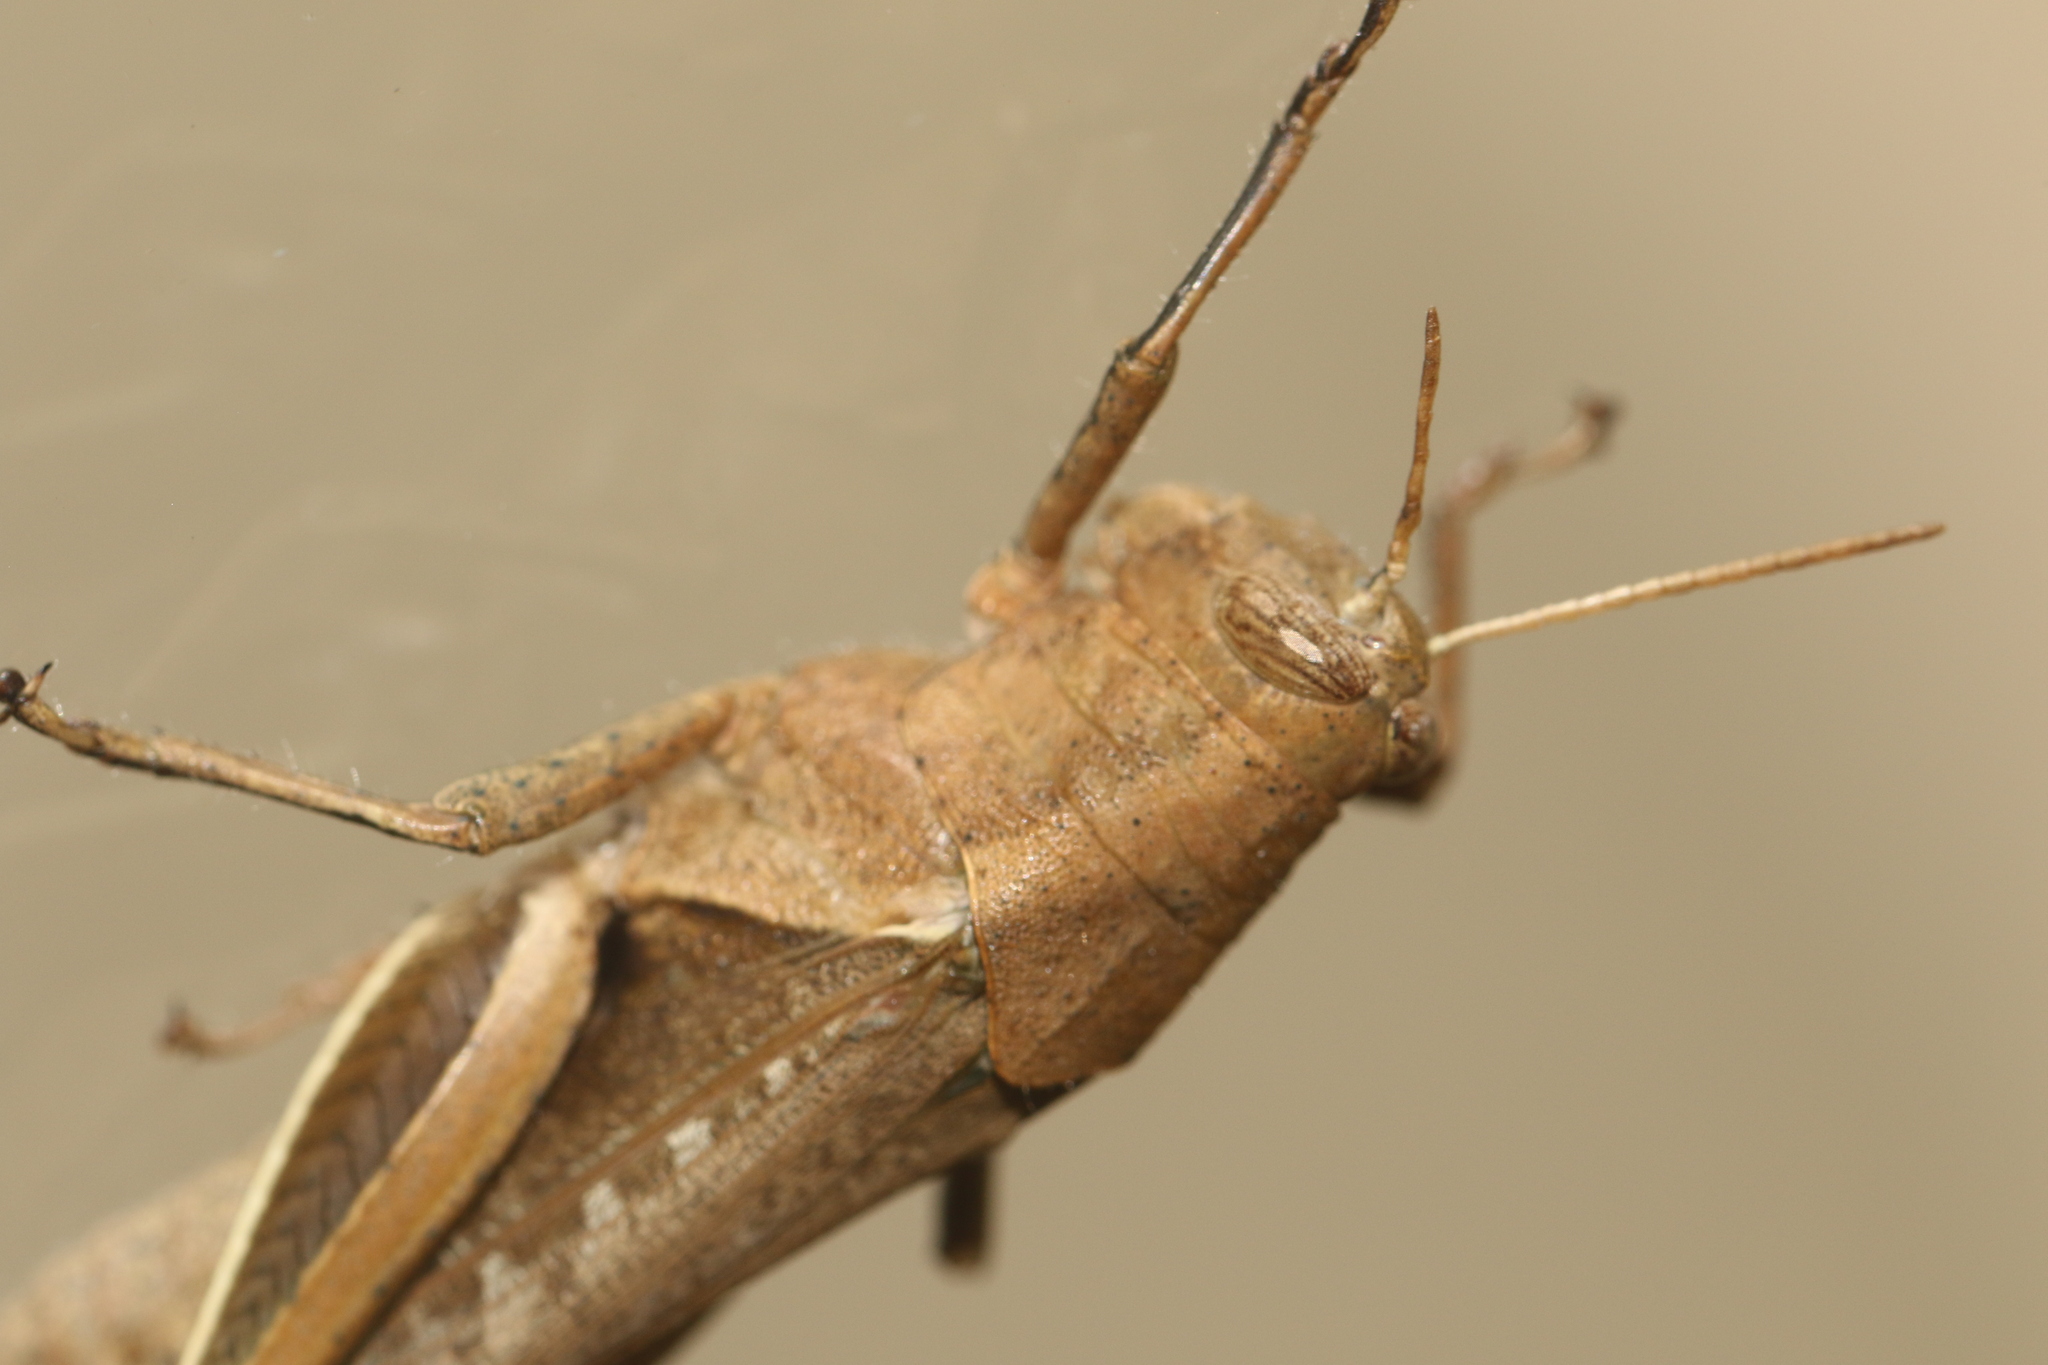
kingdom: Animalia
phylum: Arthropoda
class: Insecta
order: Orthoptera
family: Acrididae
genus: Abracris
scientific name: Abracris flavolineata
